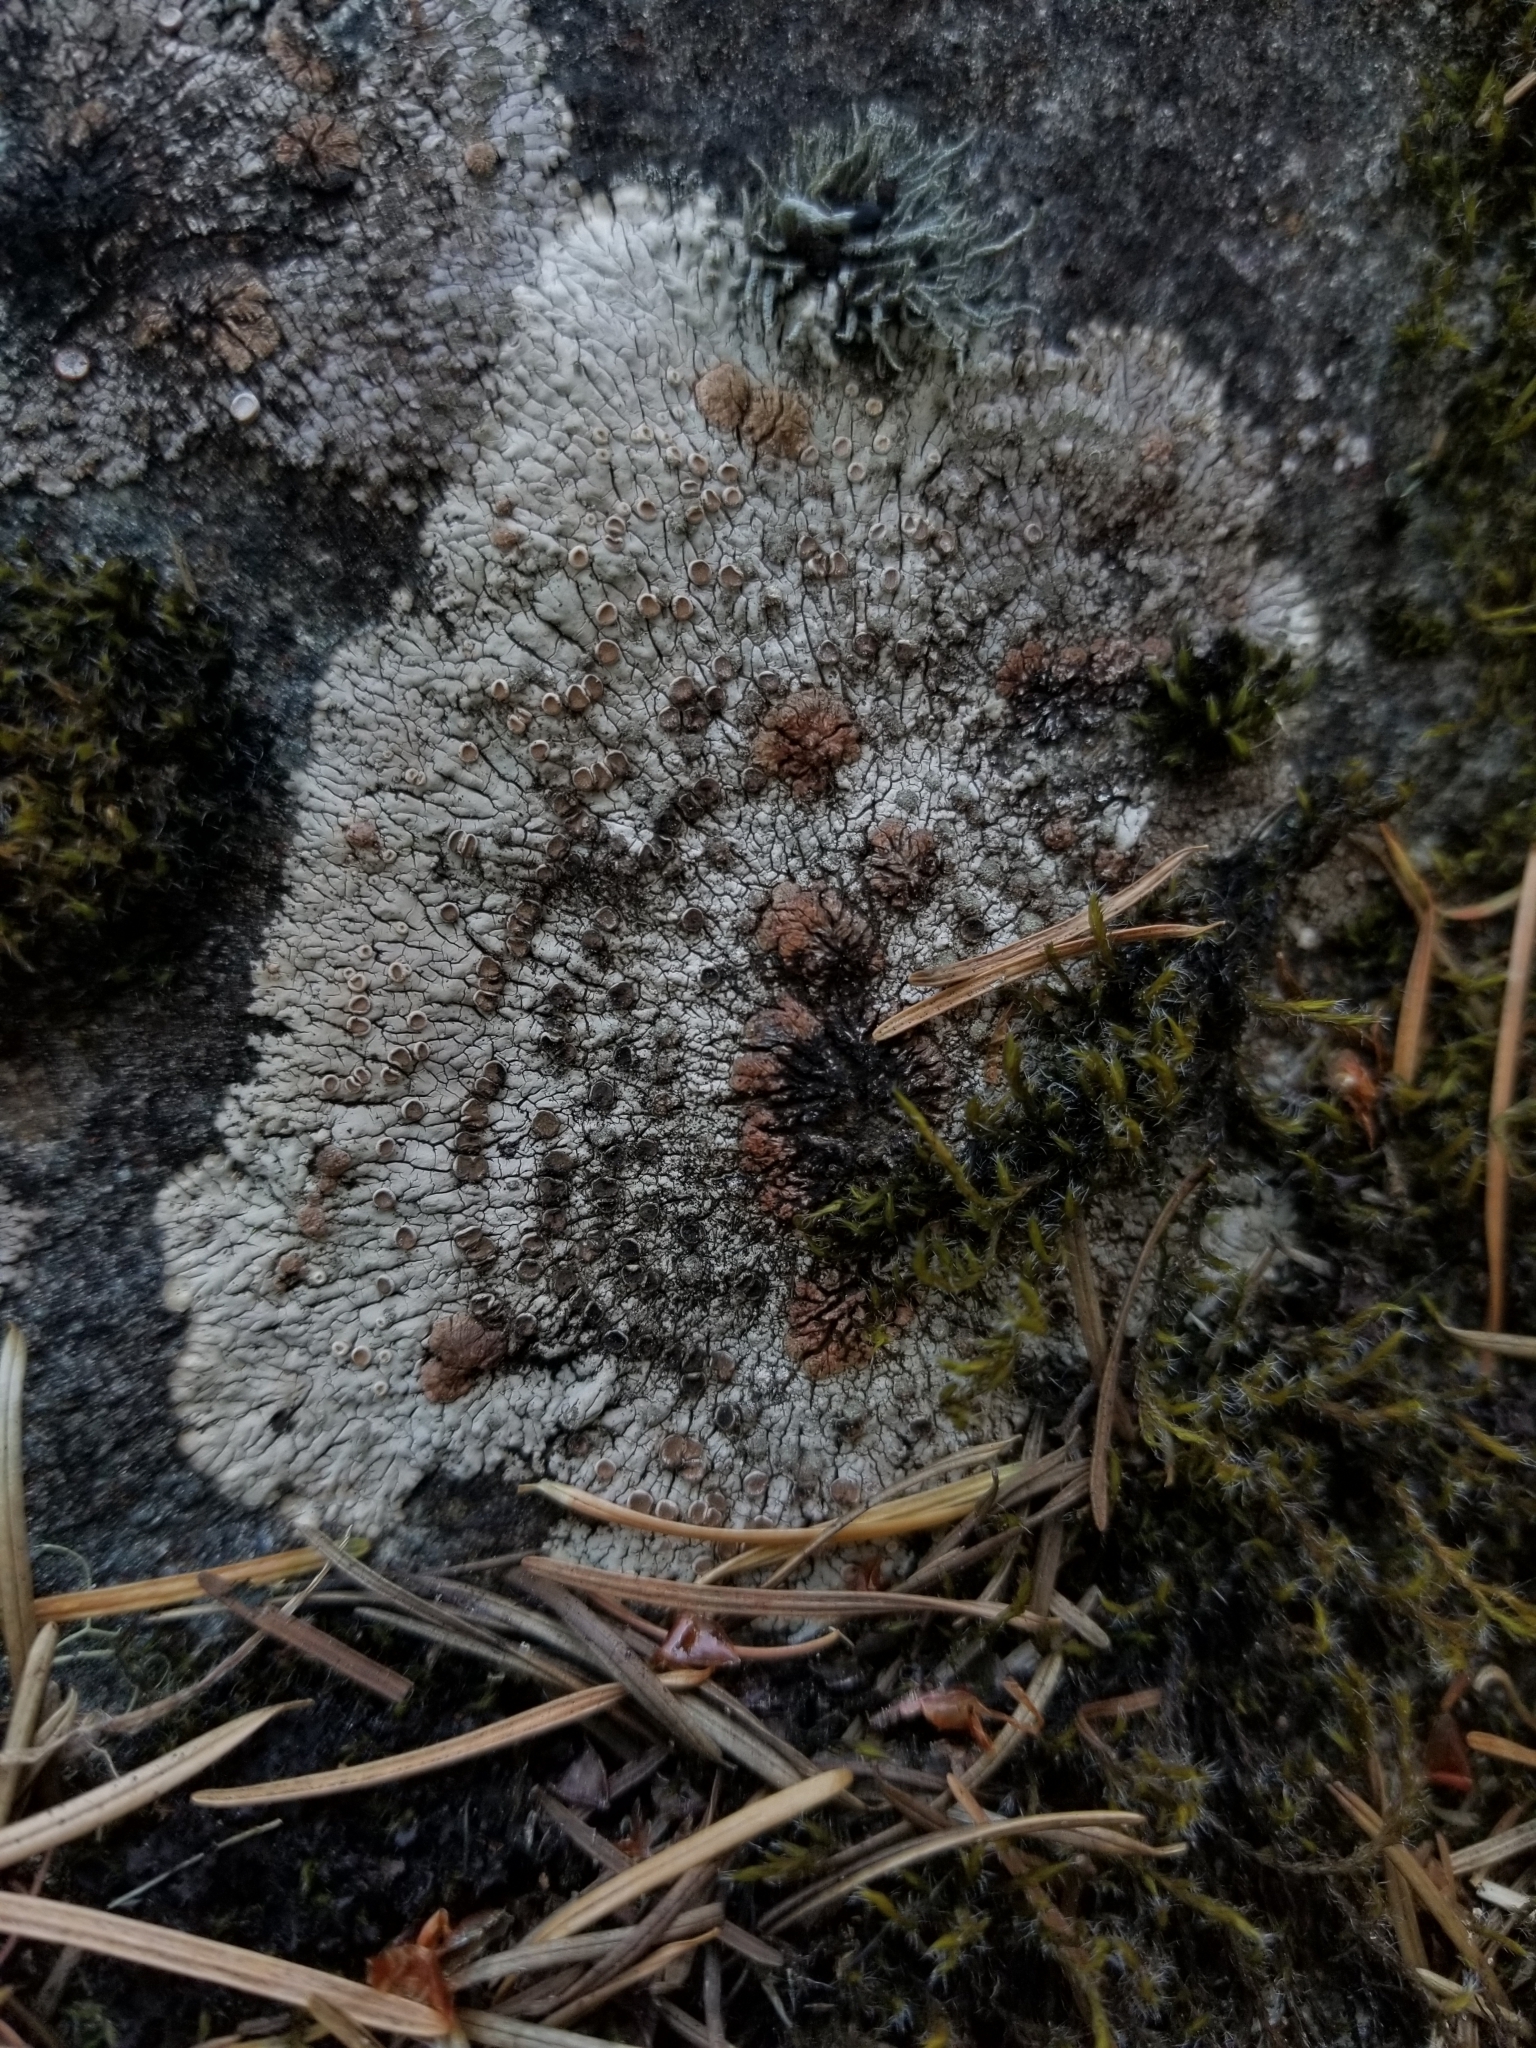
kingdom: Fungi
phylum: Ascomycota
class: Lecanoromycetes
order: Baeomycetales
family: Trapeliaceae
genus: Placopsis
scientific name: Placopsis lambii
